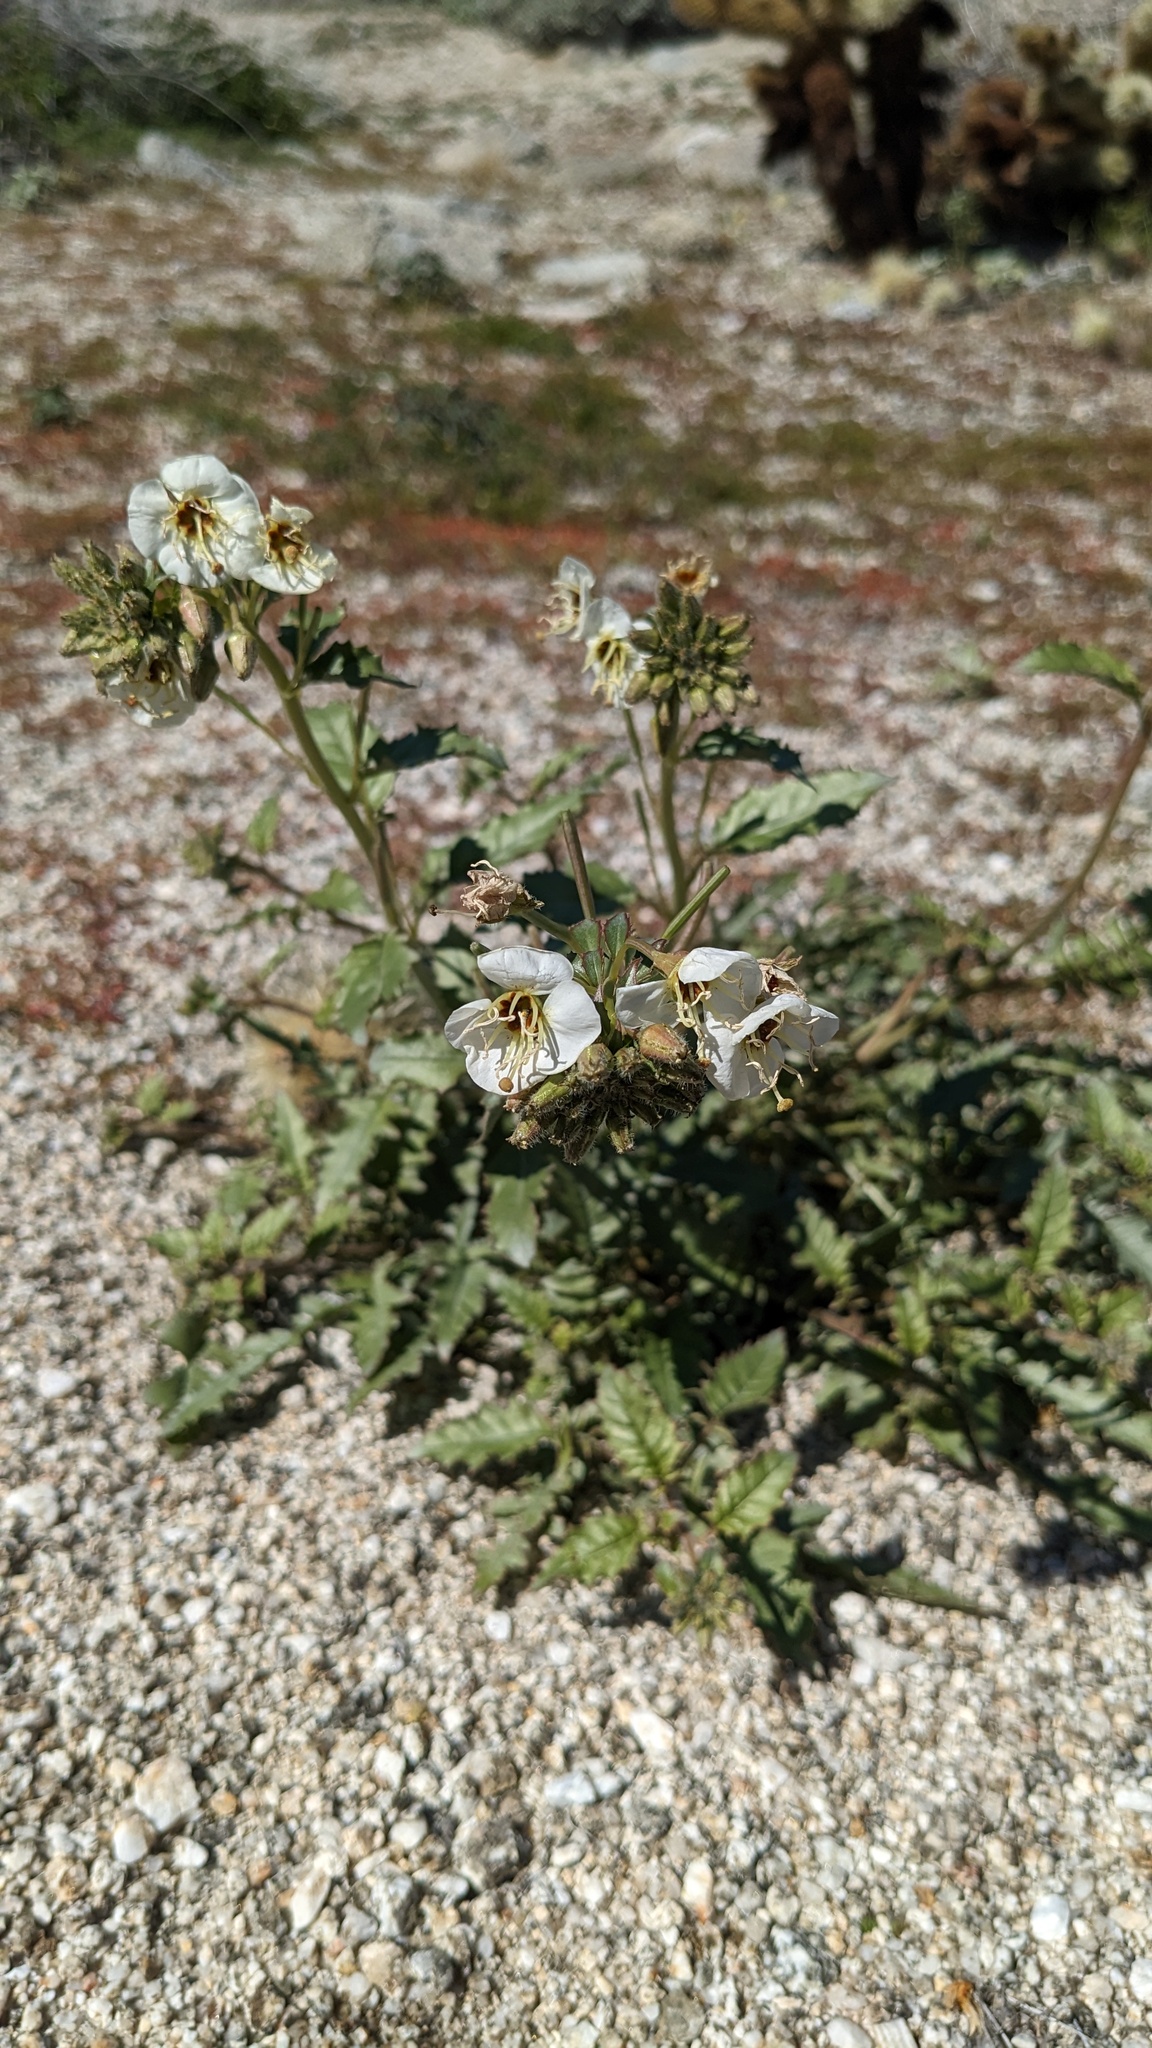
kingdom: Plantae
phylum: Tracheophyta
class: Magnoliopsida
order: Myrtales
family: Onagraceae
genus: Chylismia
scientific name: Chylismia claviformis
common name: Browneyes
